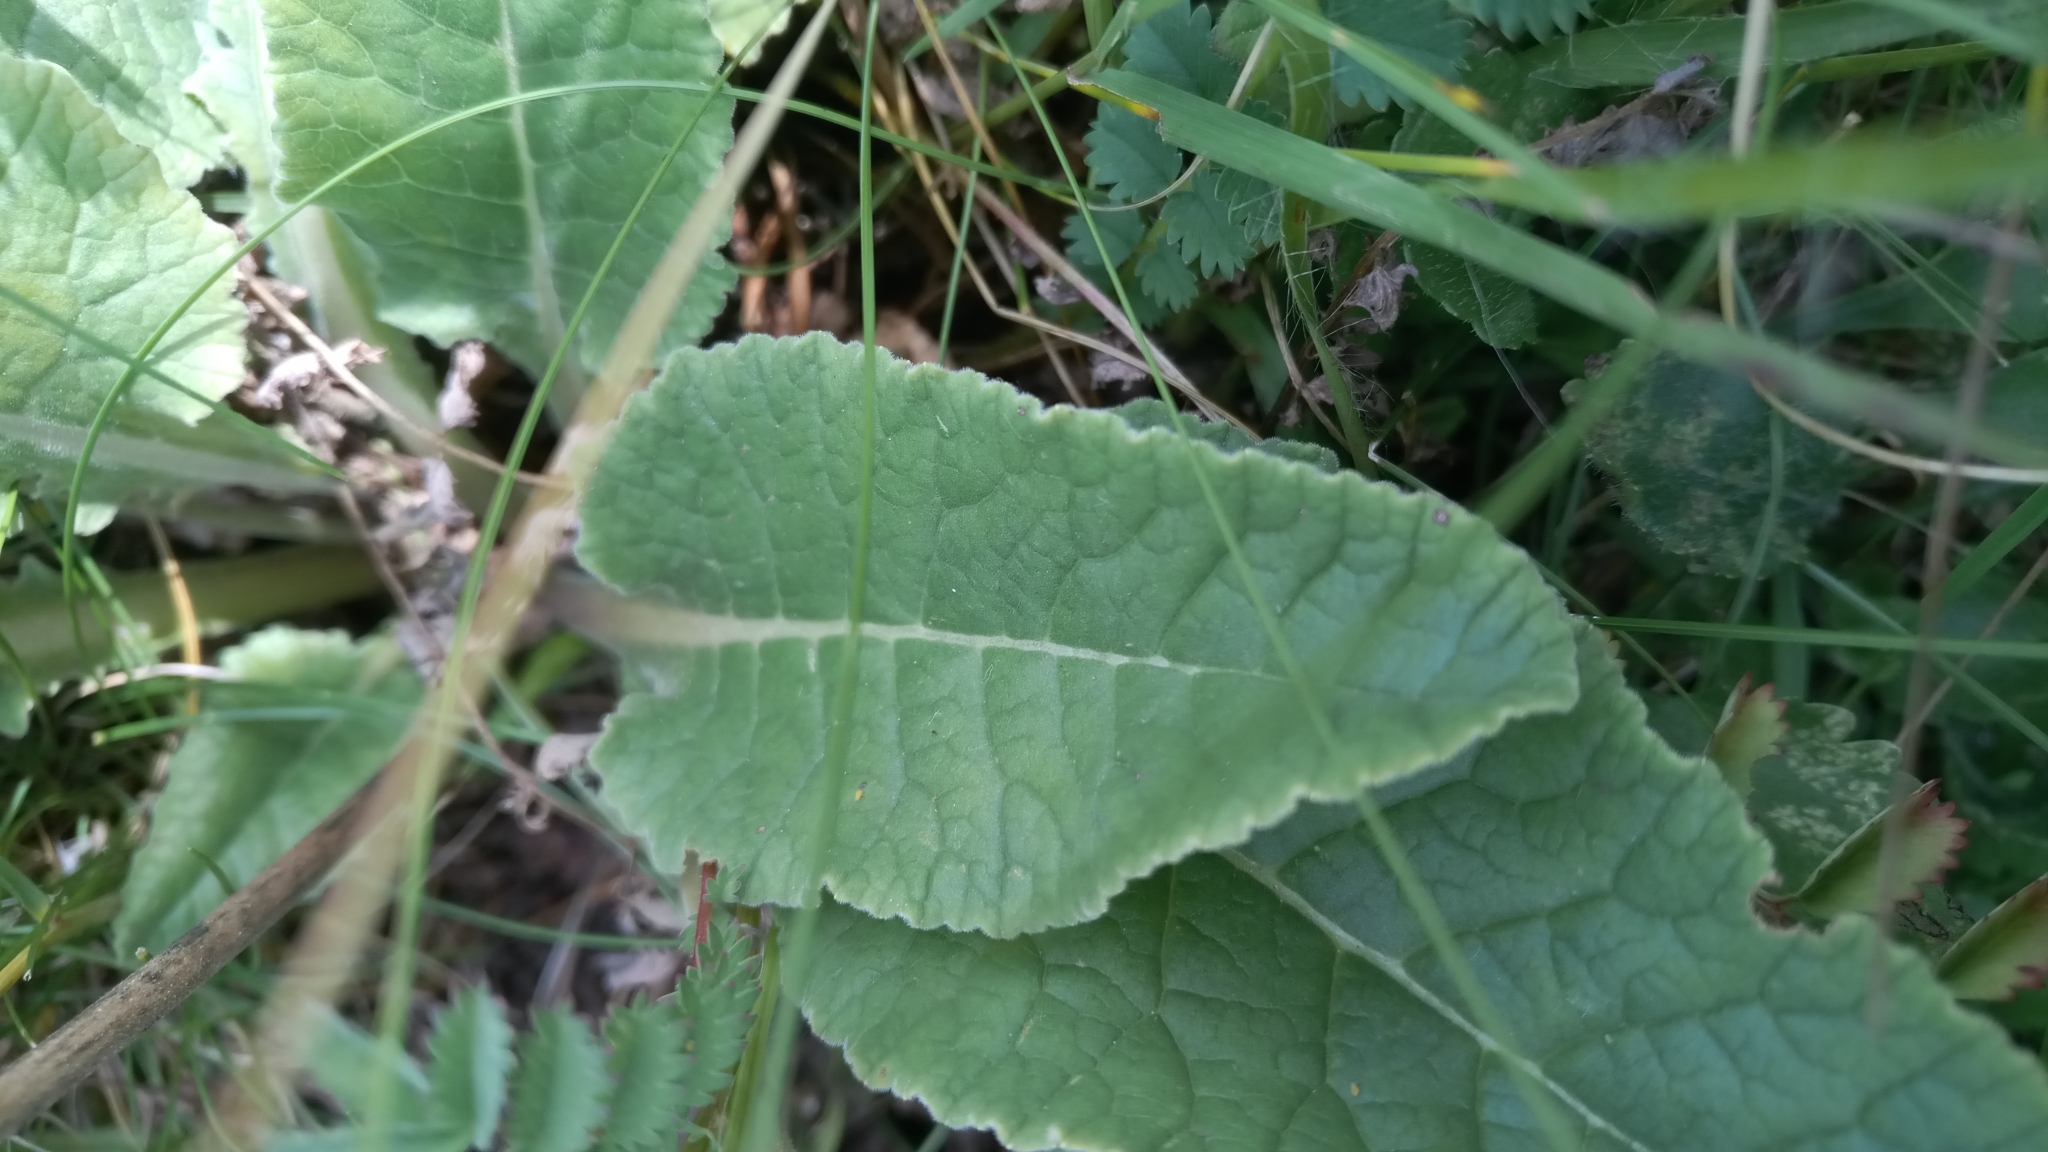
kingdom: Plantae
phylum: Tracheophyta
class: Magnoliopsida
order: Ericales
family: Primulaceae
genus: Primula
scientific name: Primula veris
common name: Cowslip
